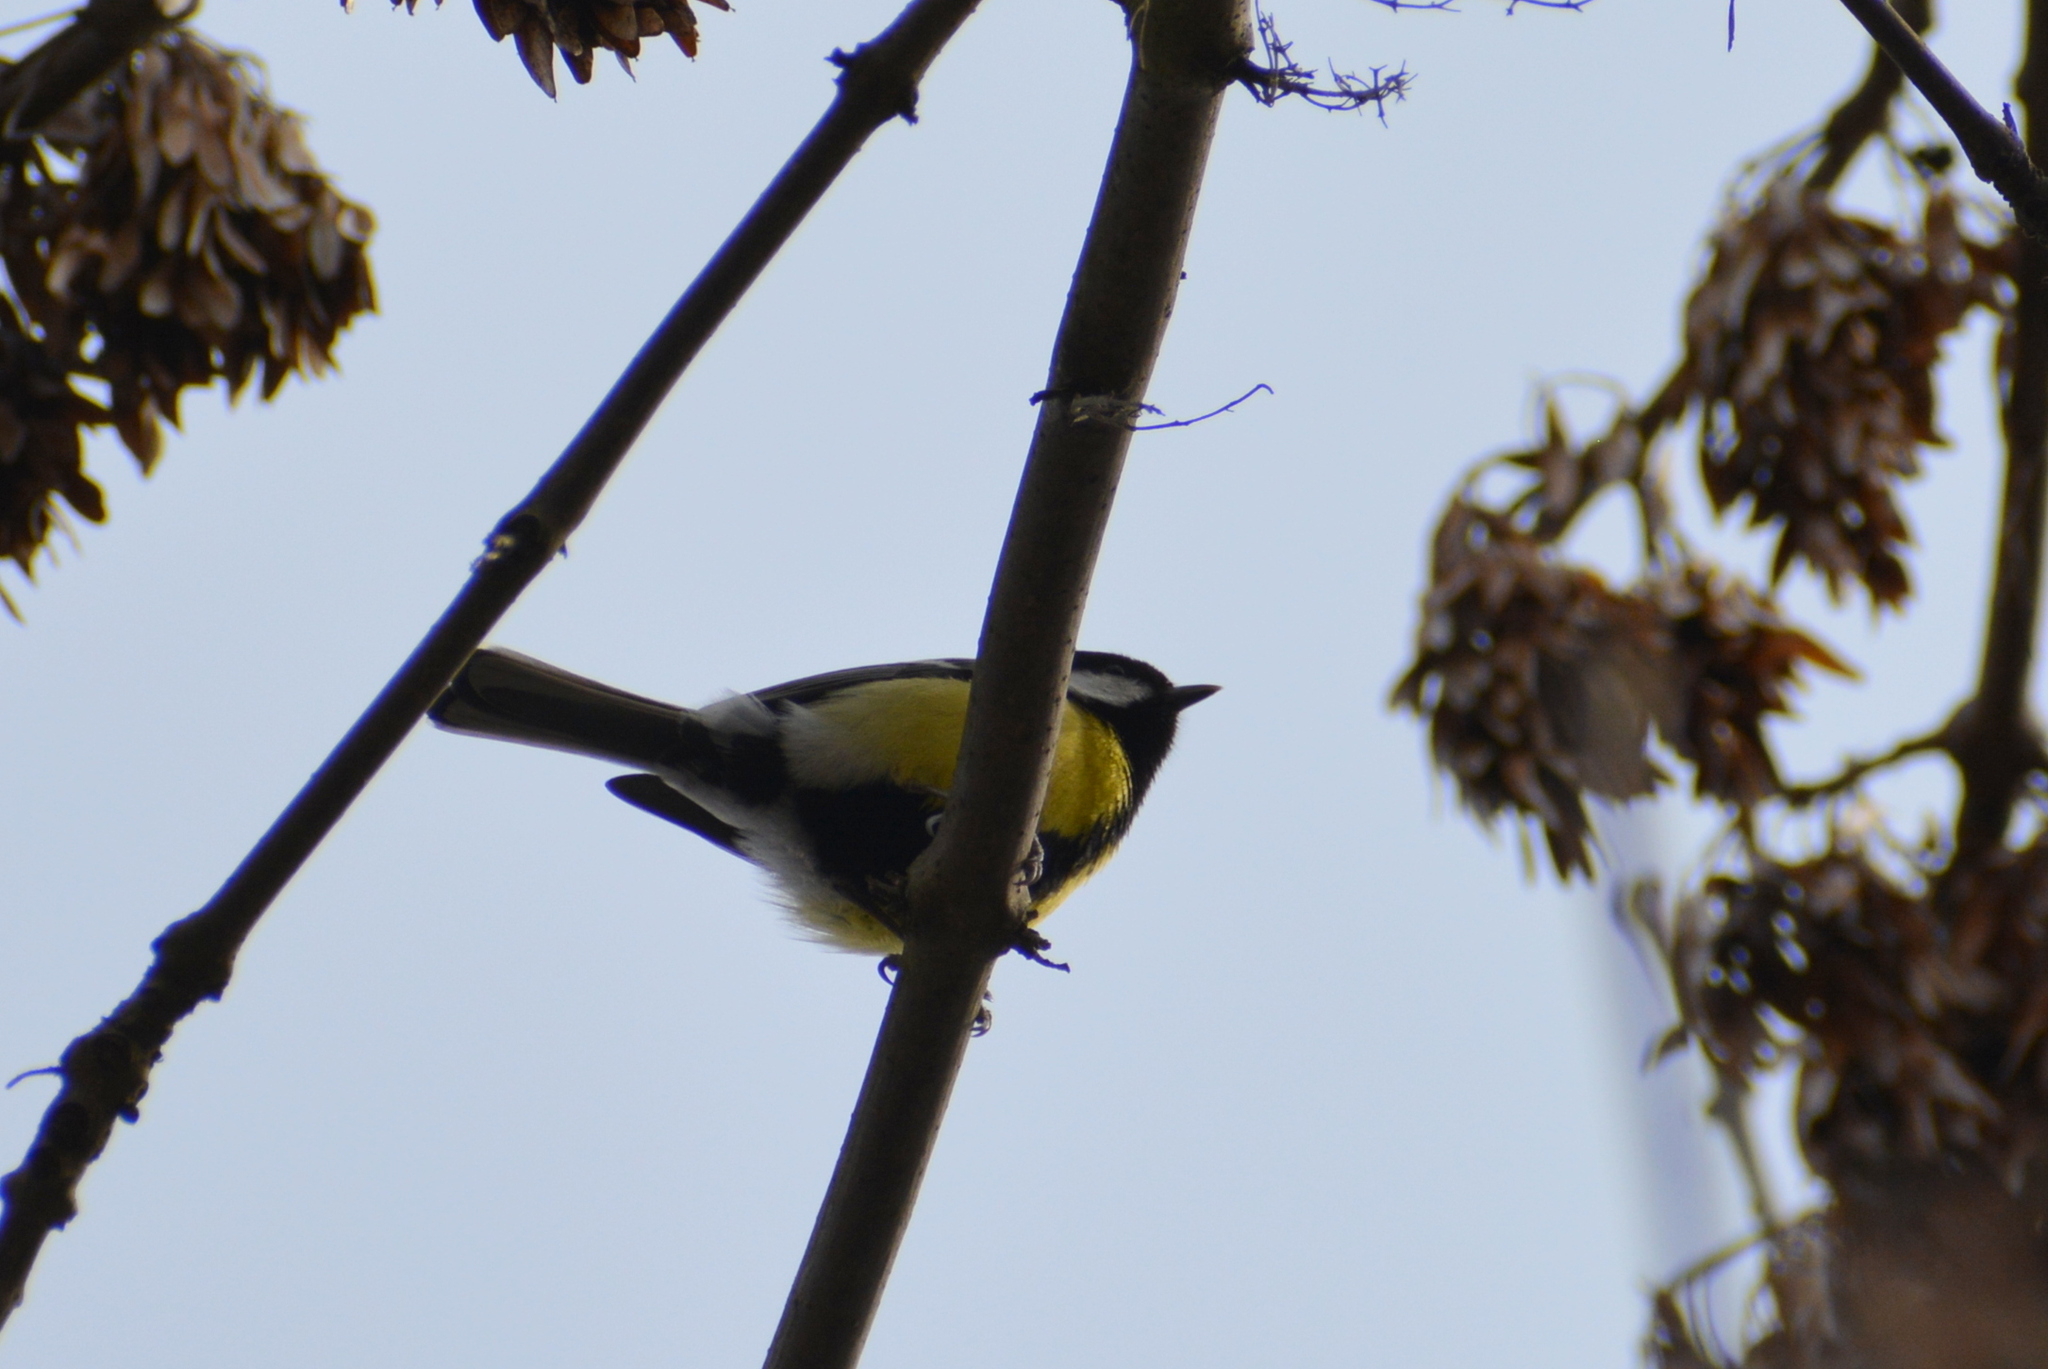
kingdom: Animalia
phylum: Chordata
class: Aves
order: Passeriformes
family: Paridae
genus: Parus
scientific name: Parus major
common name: Great tit
